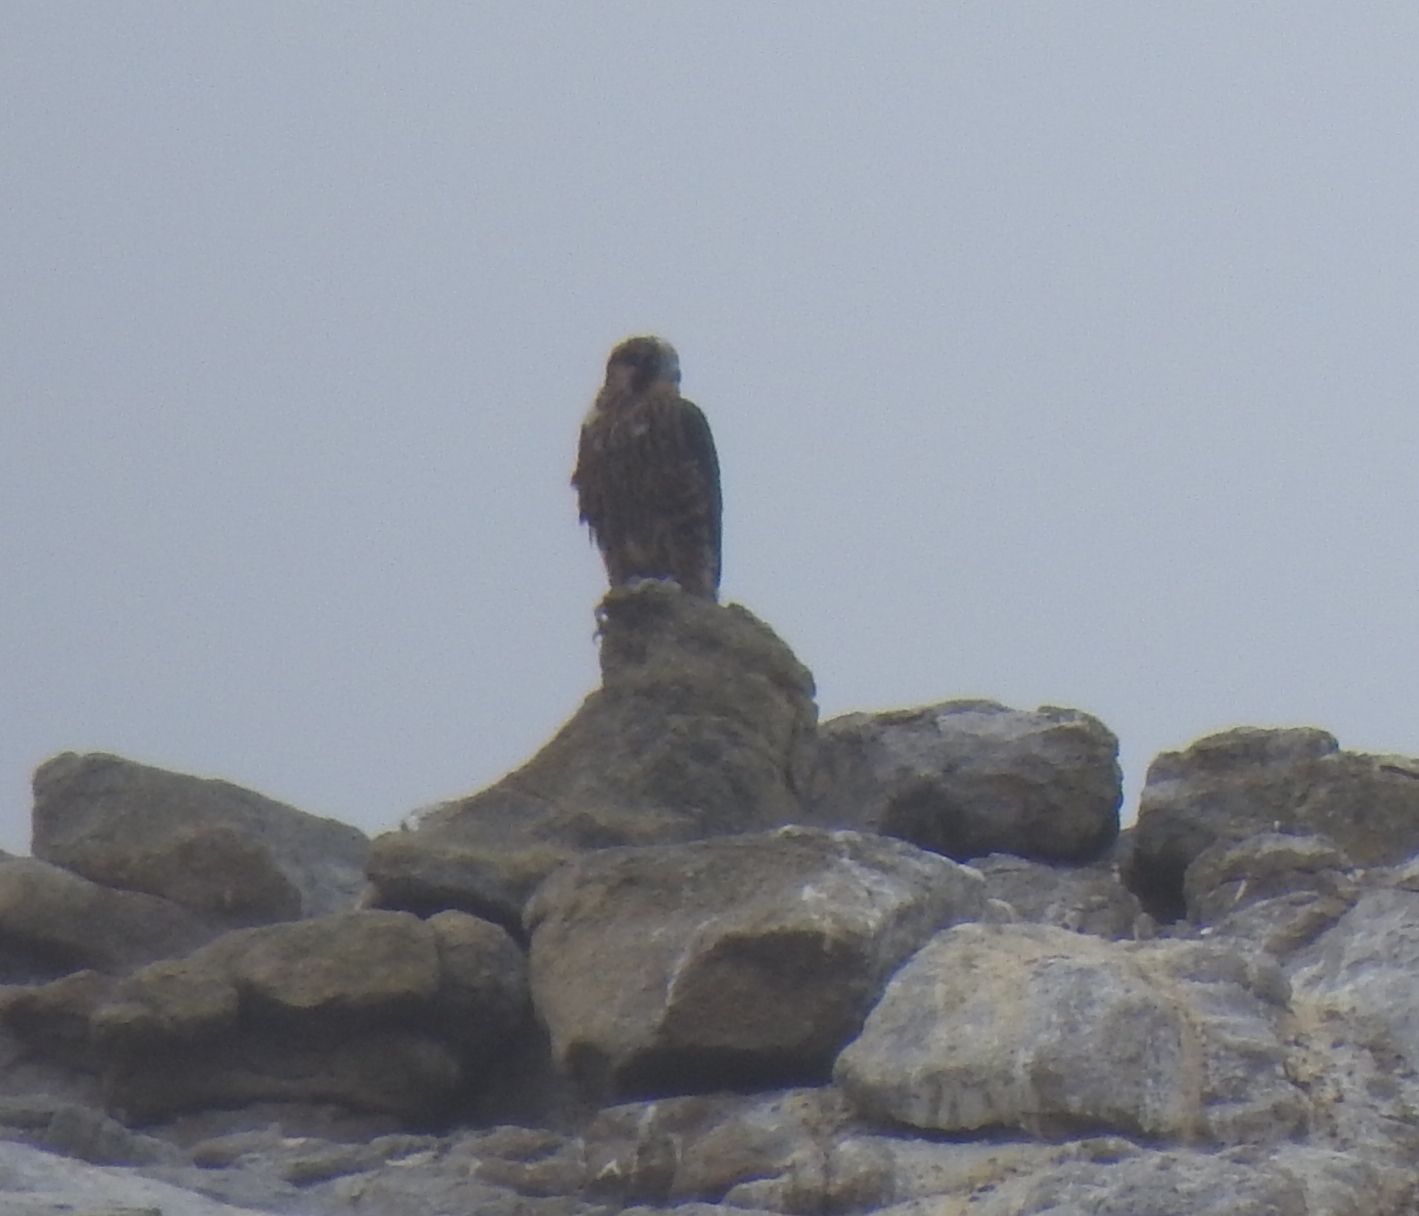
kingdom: Animalia
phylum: Chordata
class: Aves
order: Falconiformes
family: Falconidae
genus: Falco
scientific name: Falco peregrinus
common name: Peregrine falcon
